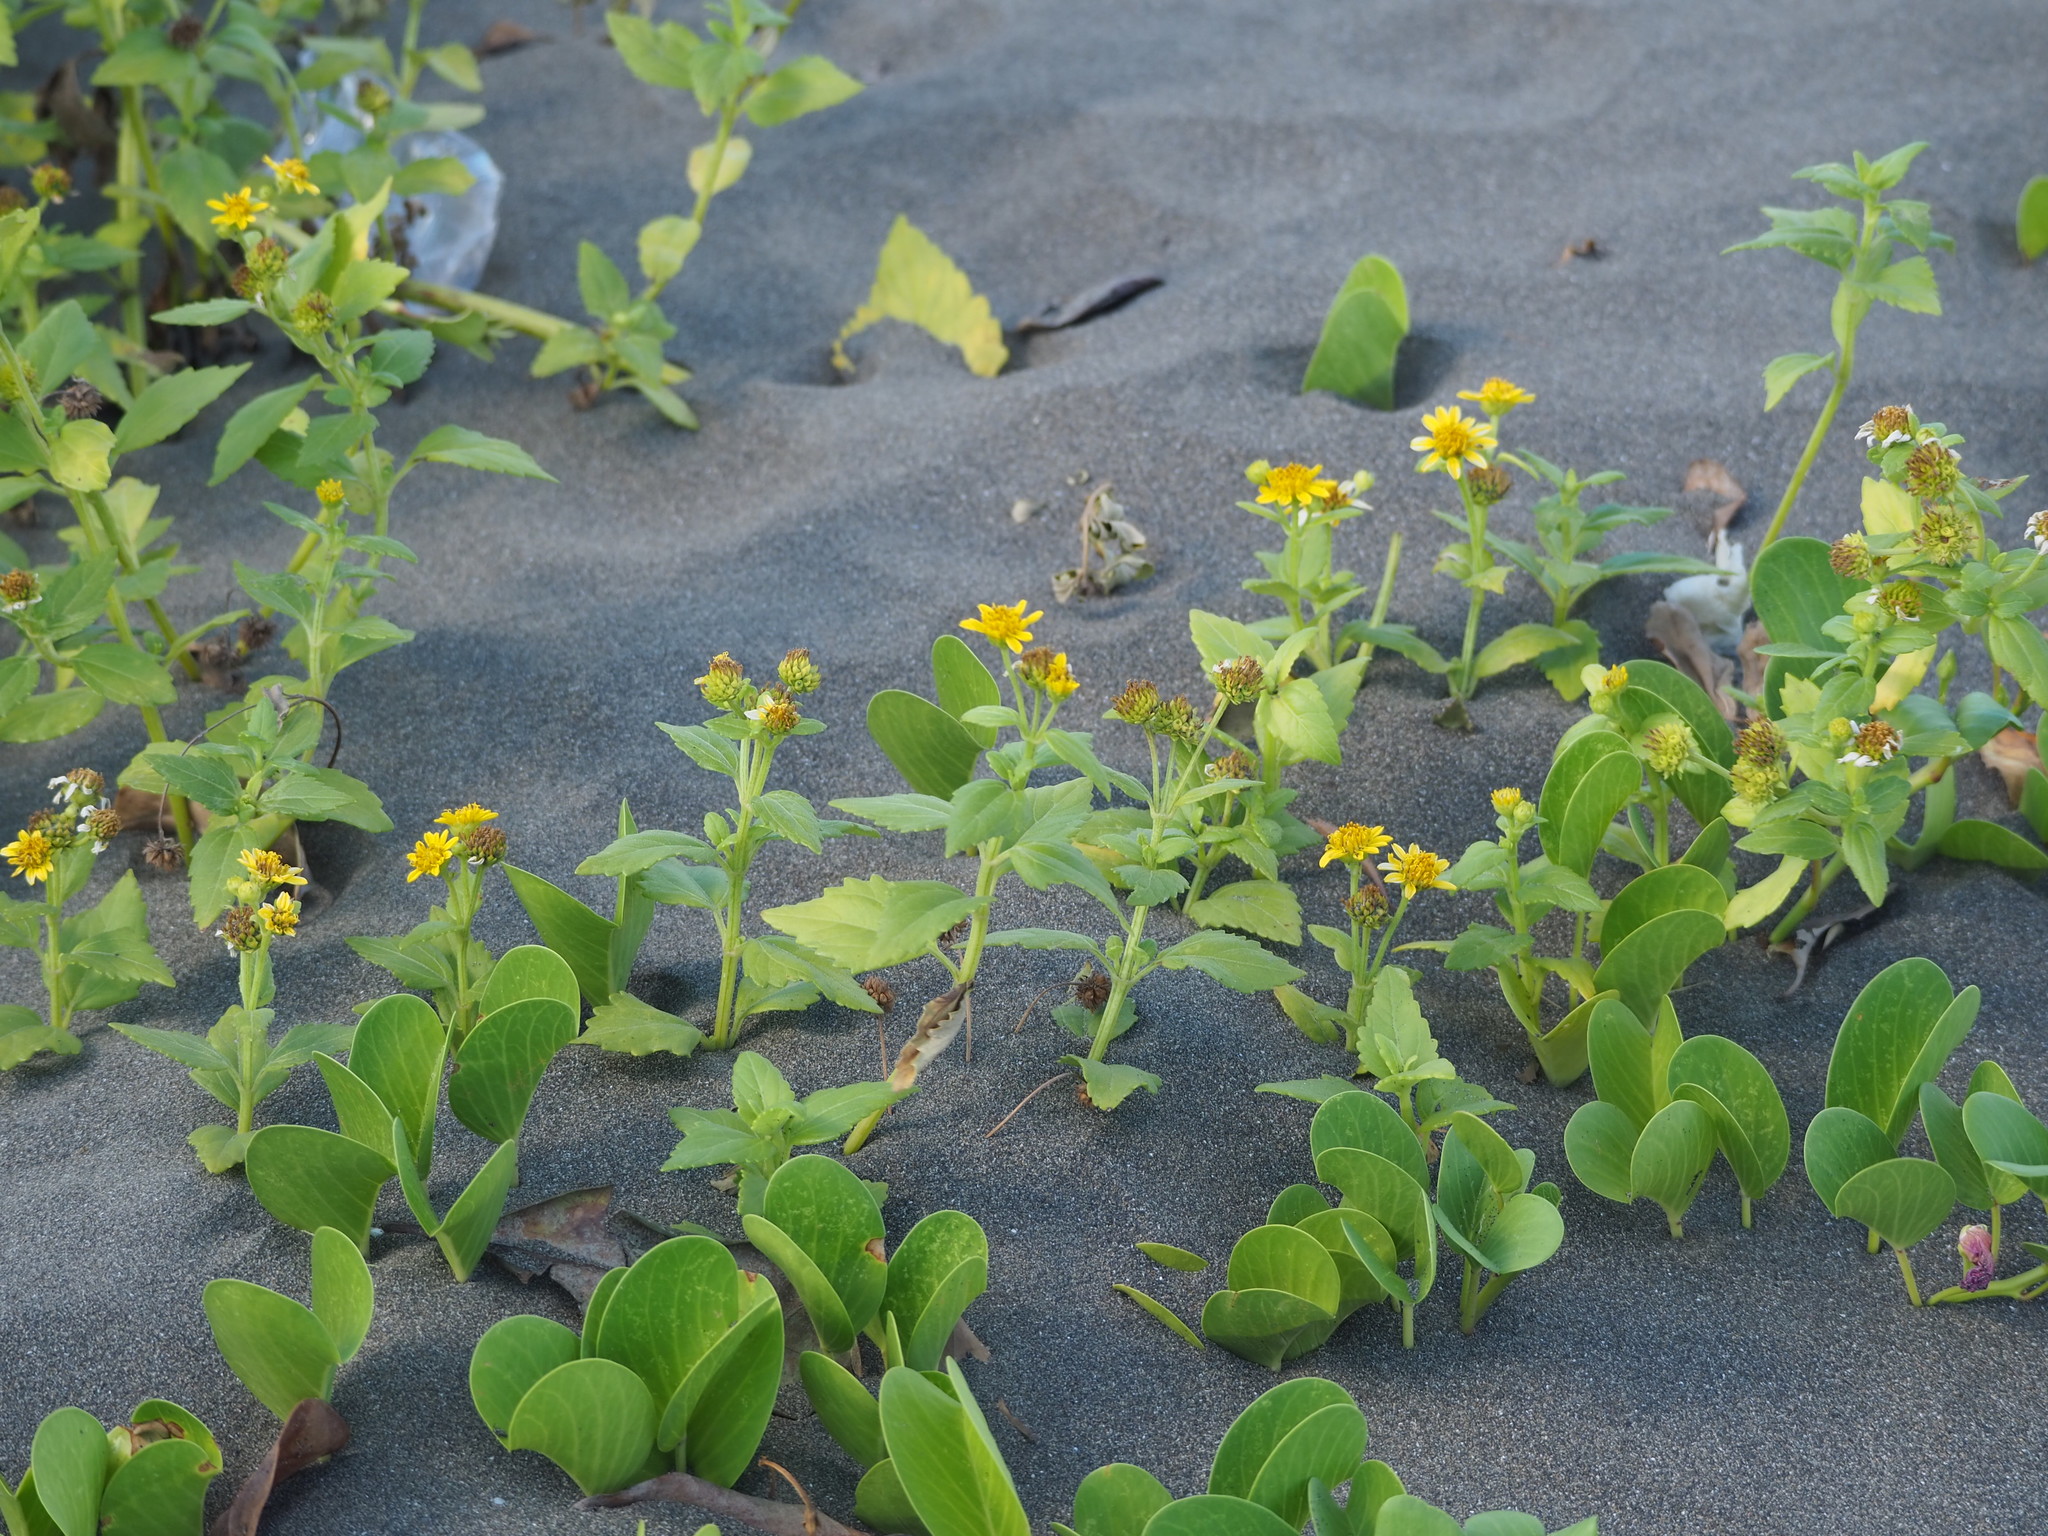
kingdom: Plantae
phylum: Tracheophyta
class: Magnoliopsida
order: Asterales
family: Asteraceae
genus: Wollastonia
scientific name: Wollastonia biflora
